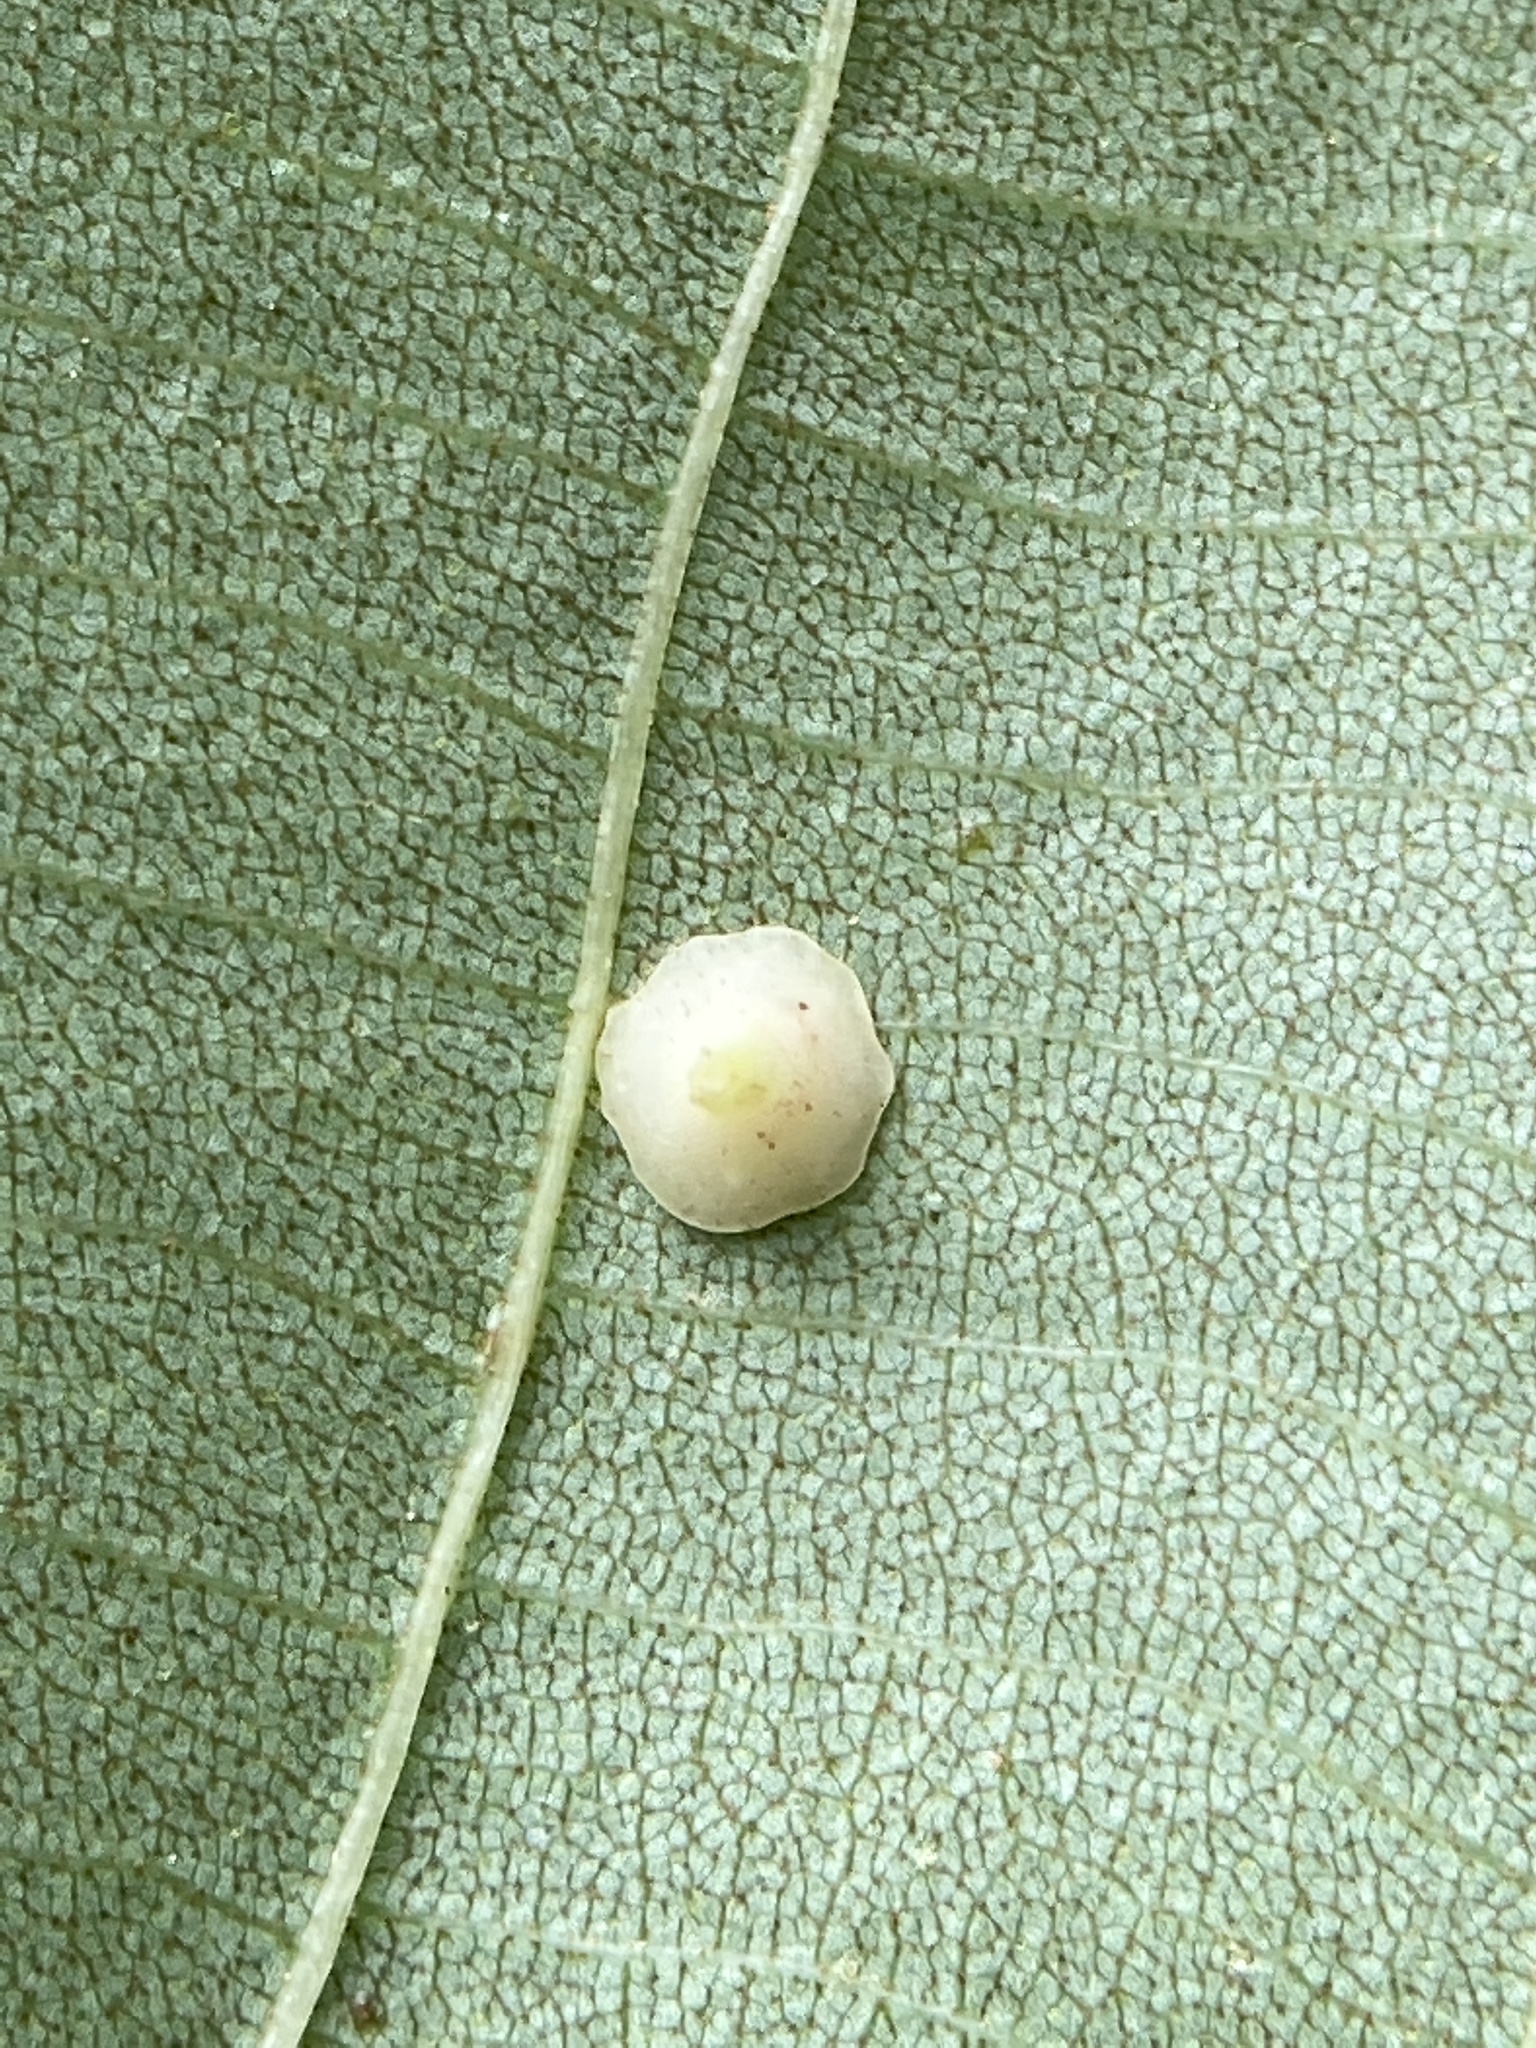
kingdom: Animalia
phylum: Arthropoda
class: Insecta
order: Diptera
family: Cecidomyiidae
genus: Caryomyia
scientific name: Caryomyia sanguinolenta
